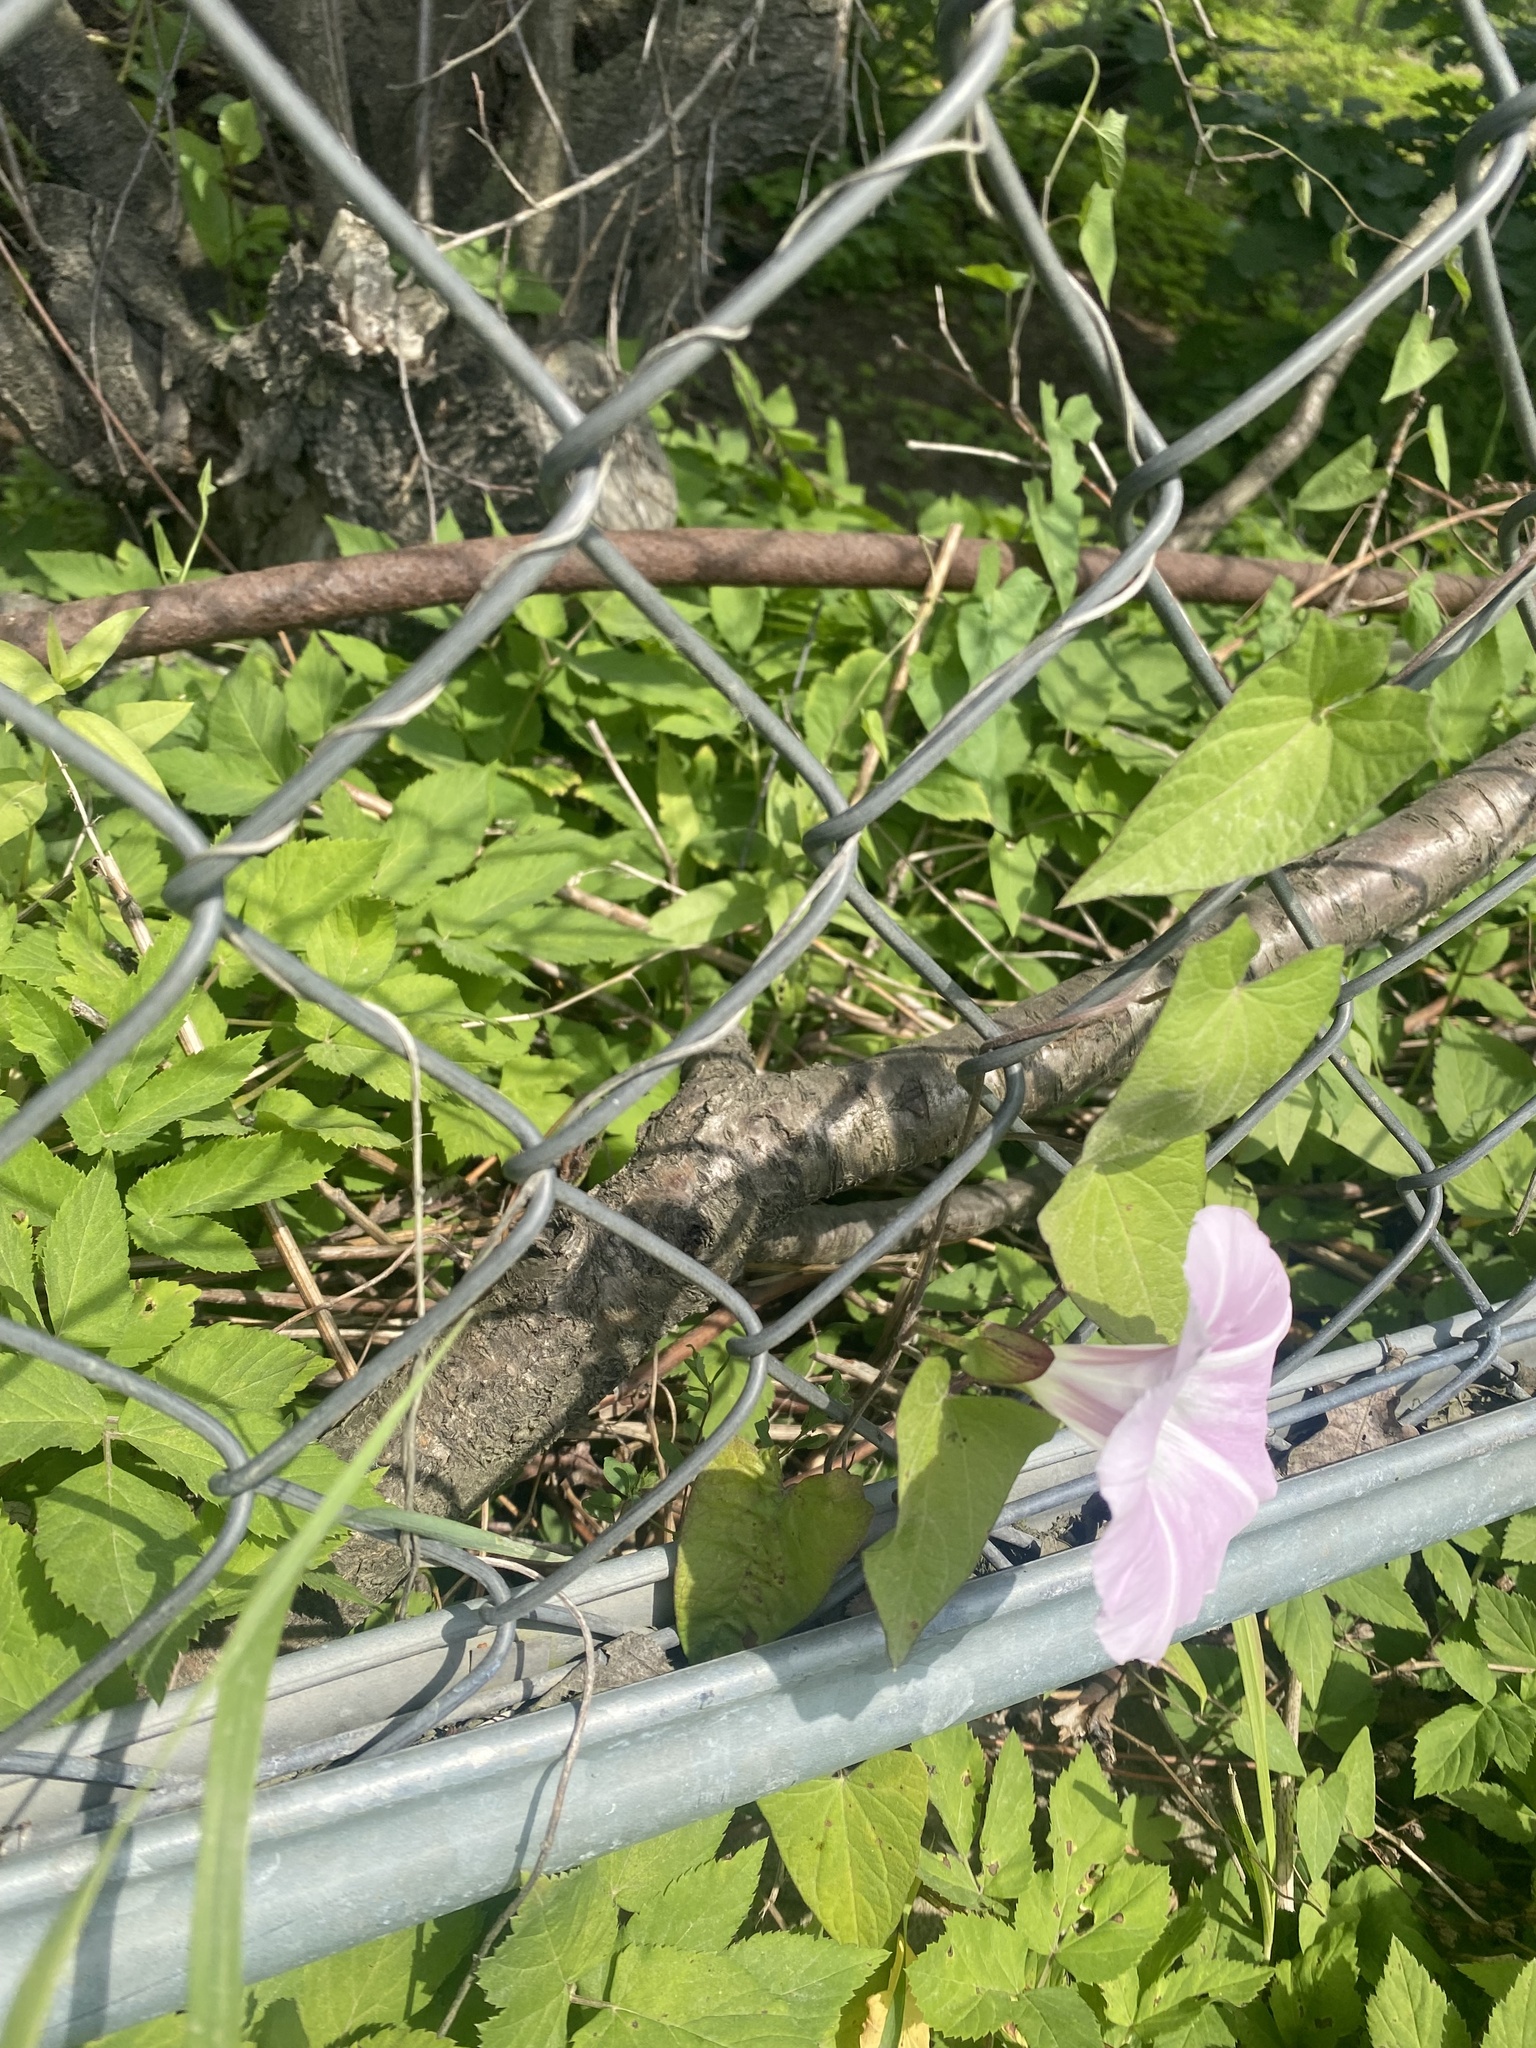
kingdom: Plantae
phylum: Tracheophyta
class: Magnoliopsida
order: Solanales
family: Convolvulaceae
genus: Calystegia
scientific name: Calystegia sepium
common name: Hedge bindweed
